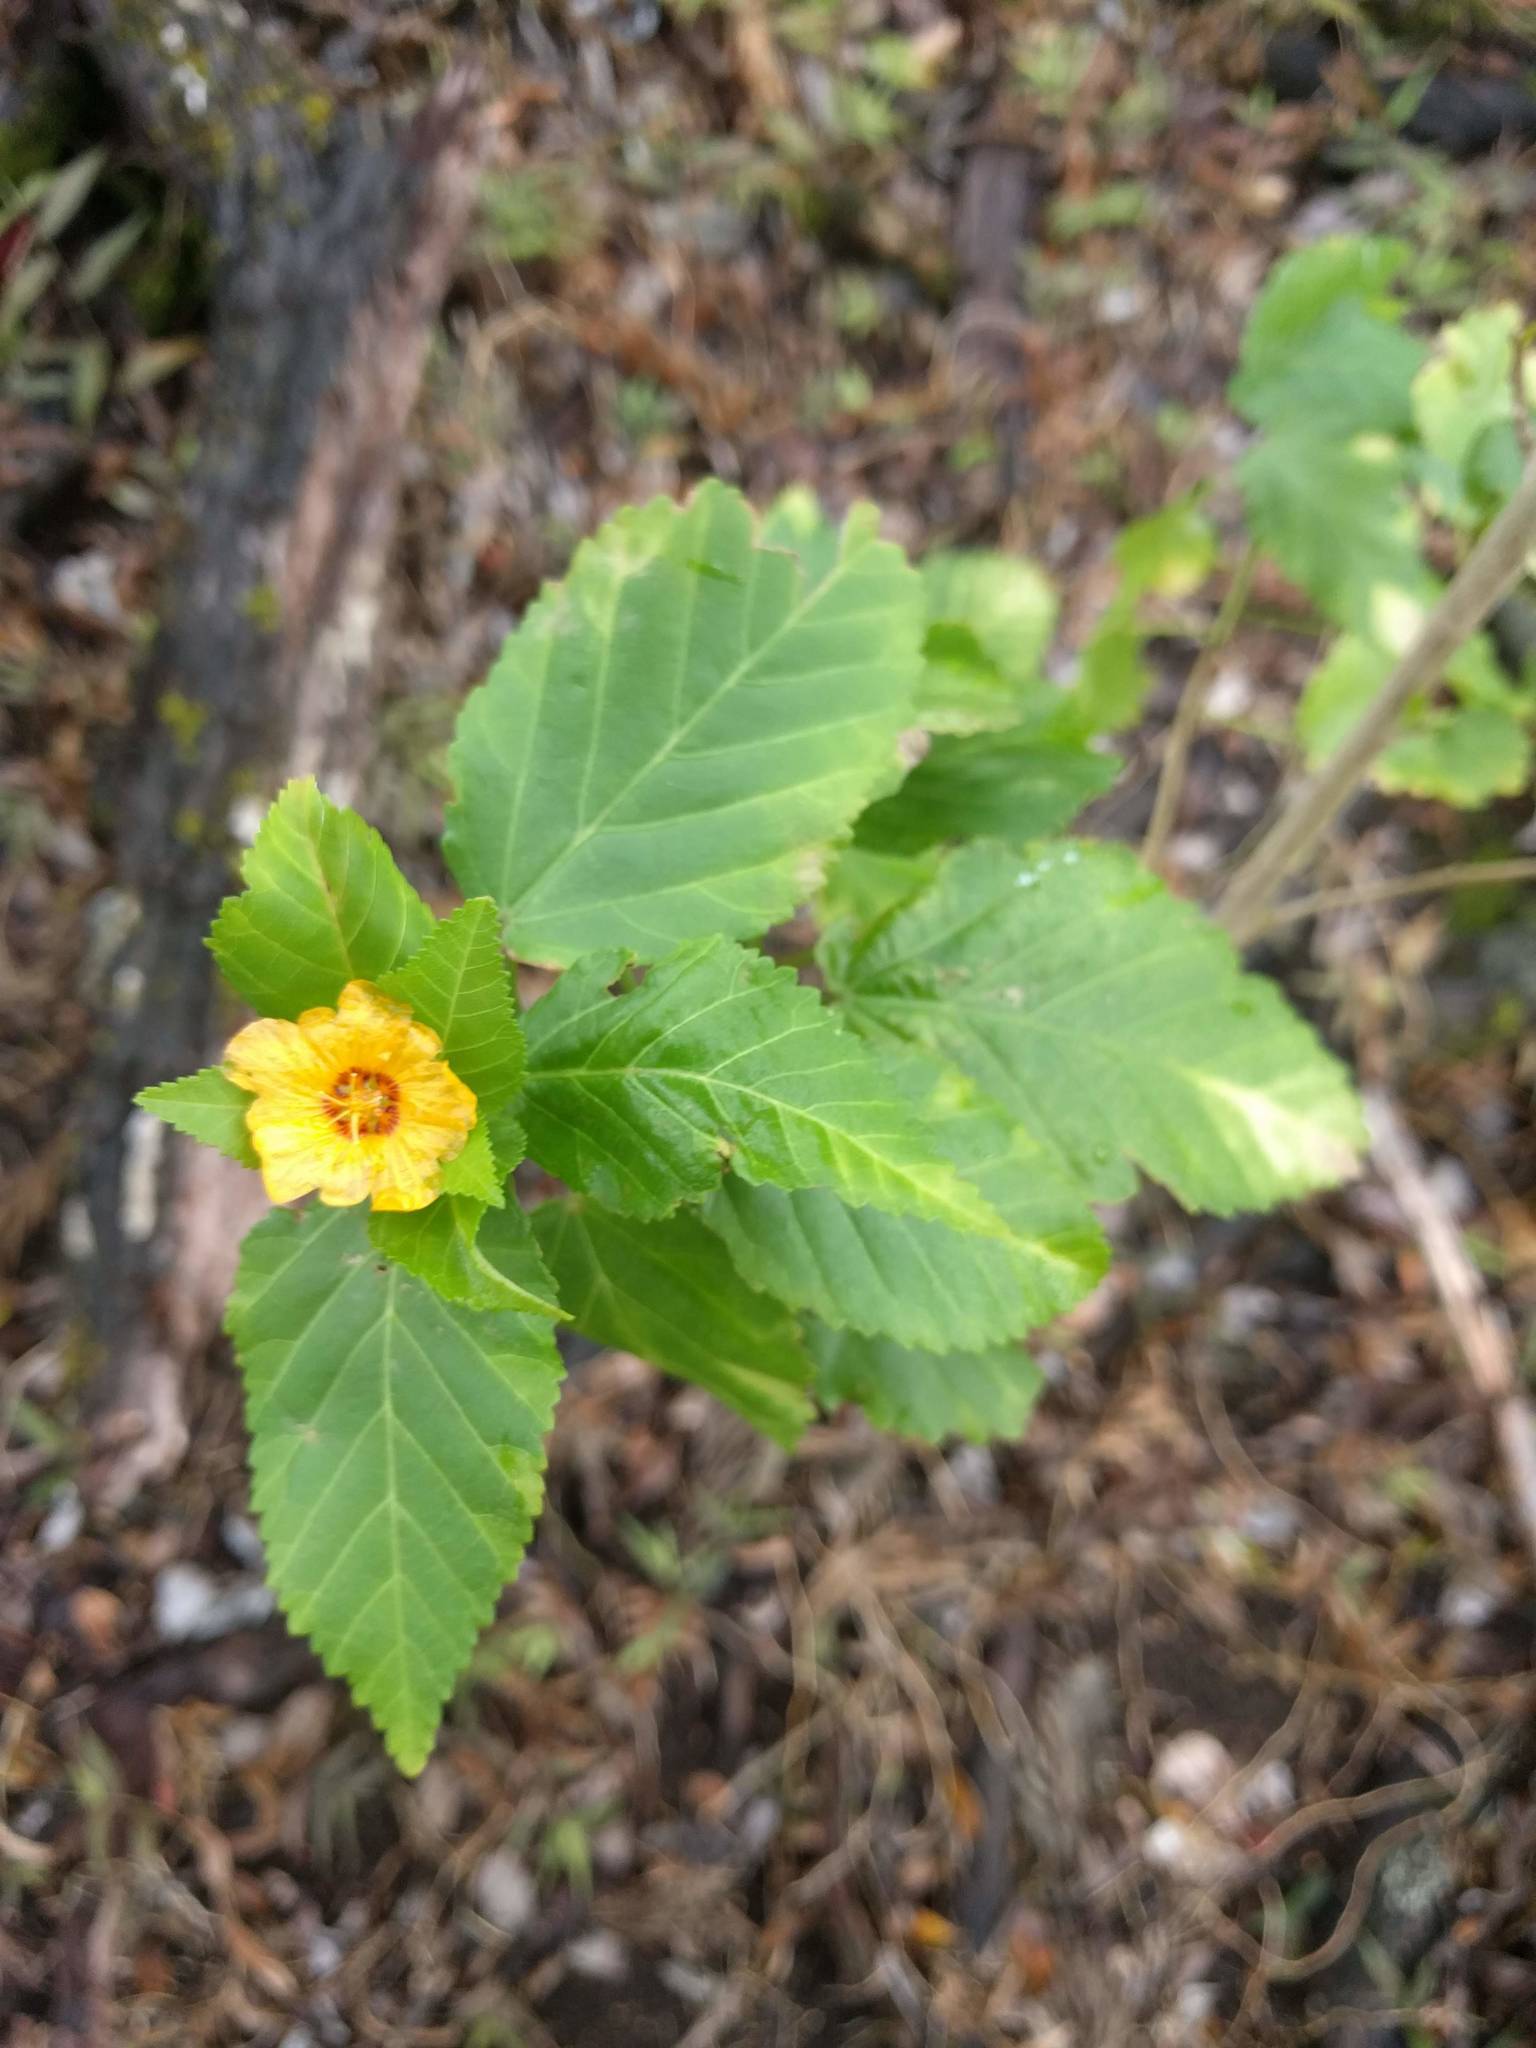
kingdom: Plantae
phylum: Tracheophyta
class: Magnoliopsida
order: Malvales
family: Malvaceae
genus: Sida
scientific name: Sida fallax
